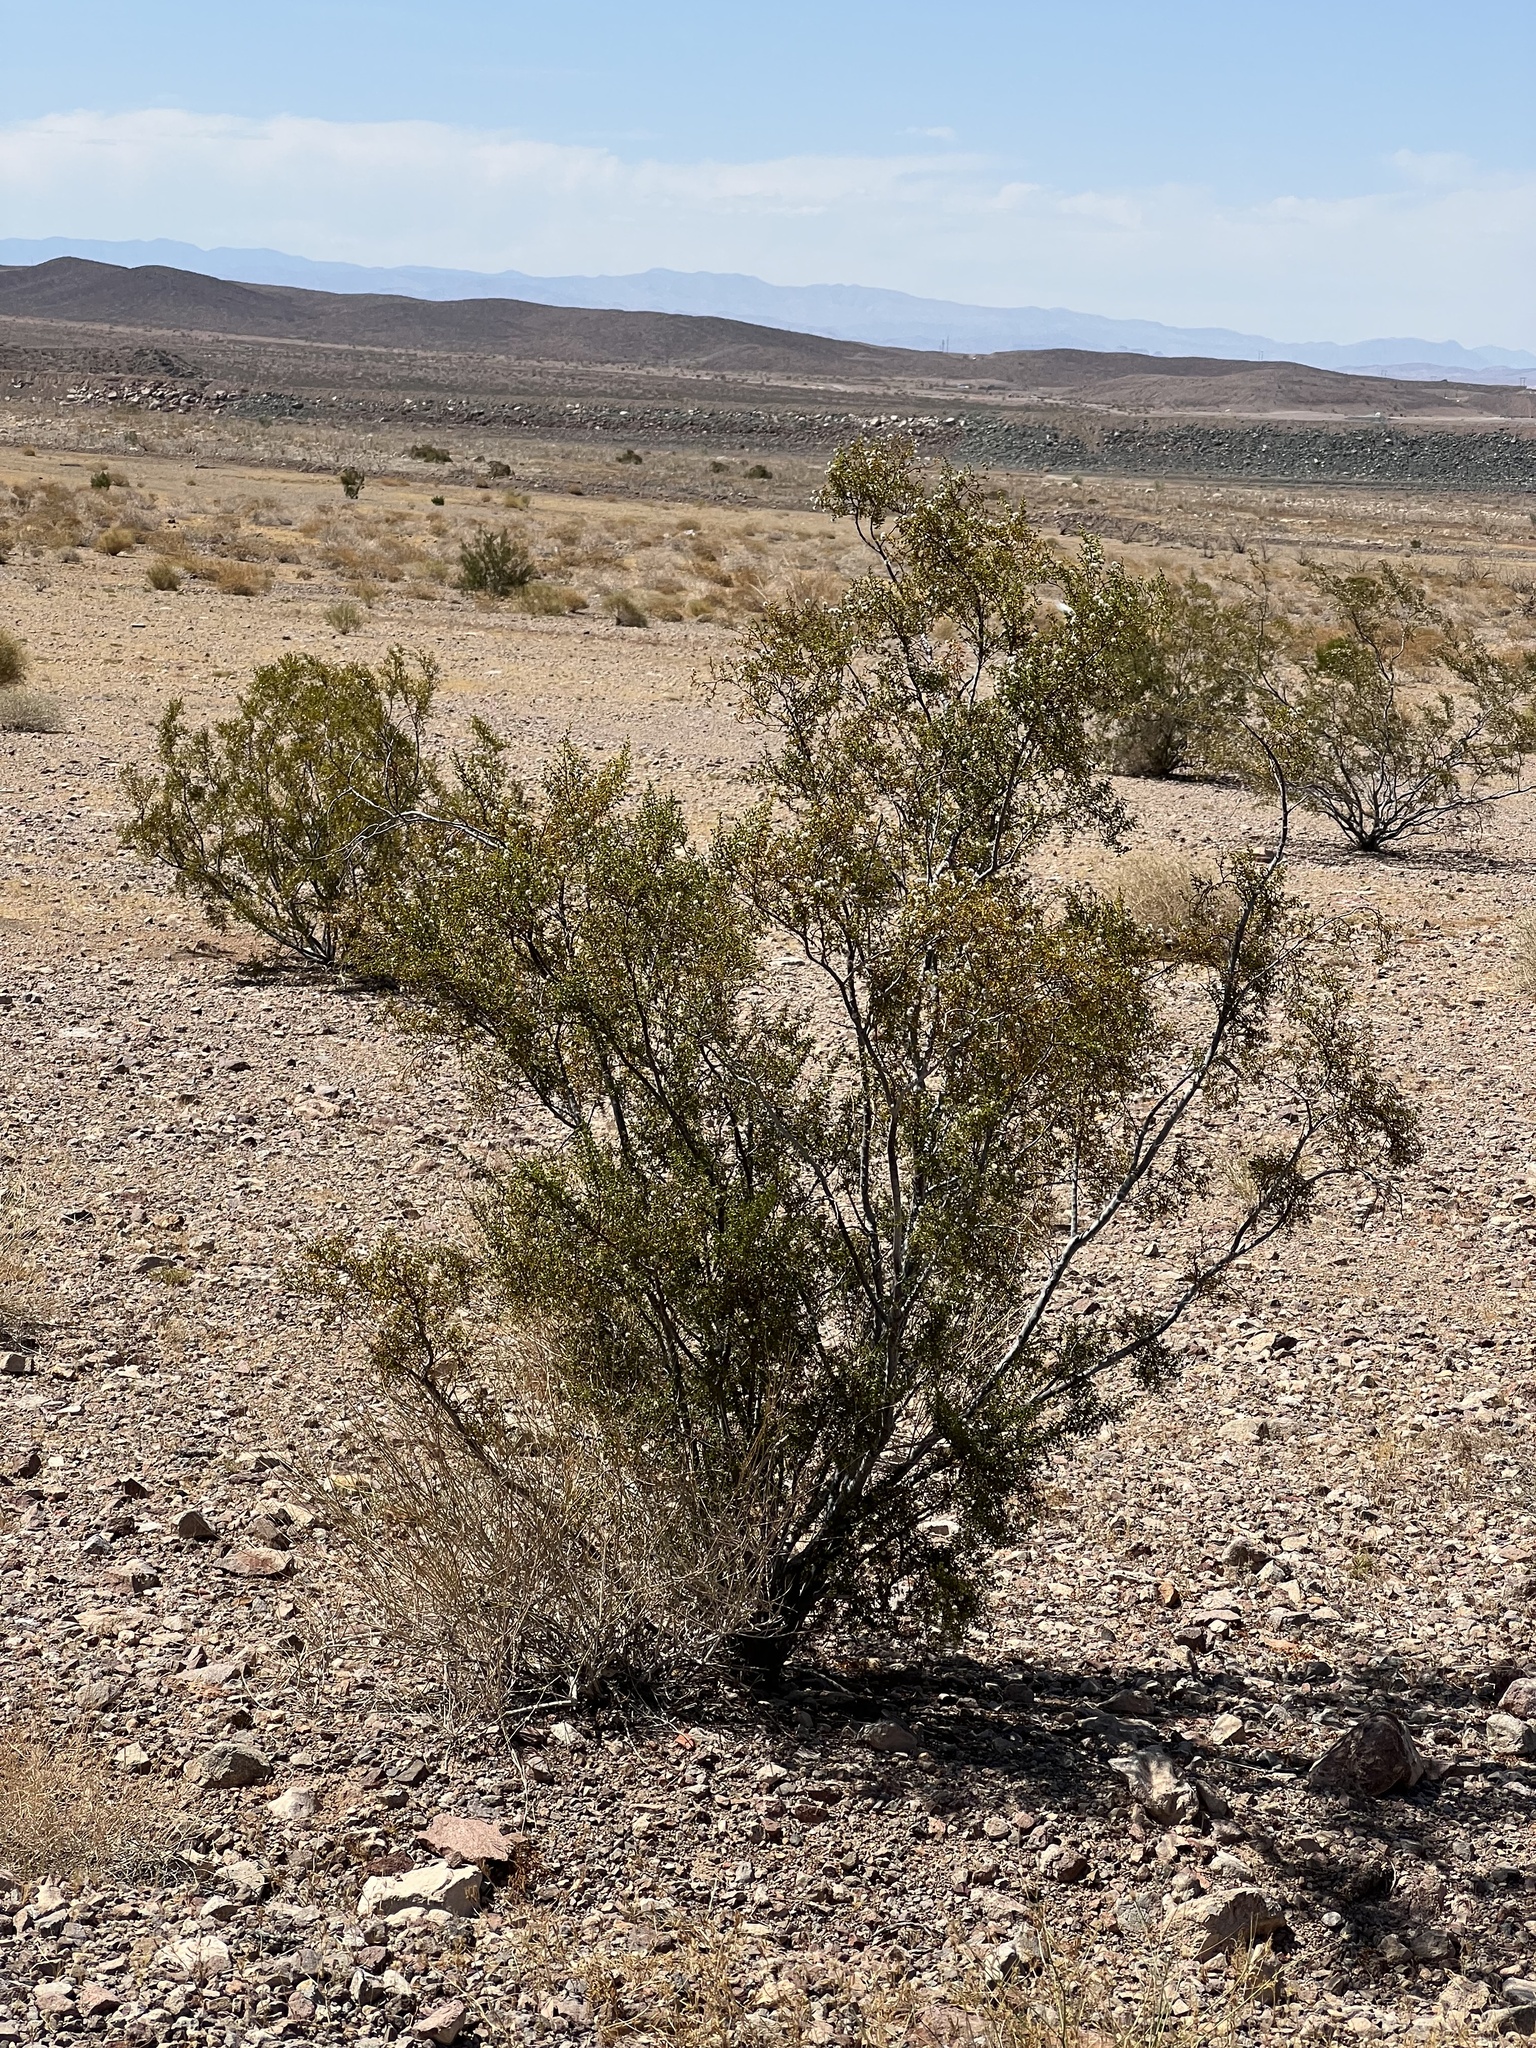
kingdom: Plantae
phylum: Tracheophyta
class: Magnoliopsida
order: Zygophyllales
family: Zygophyllaceae
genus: Larrea
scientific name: Larrea tridentata
